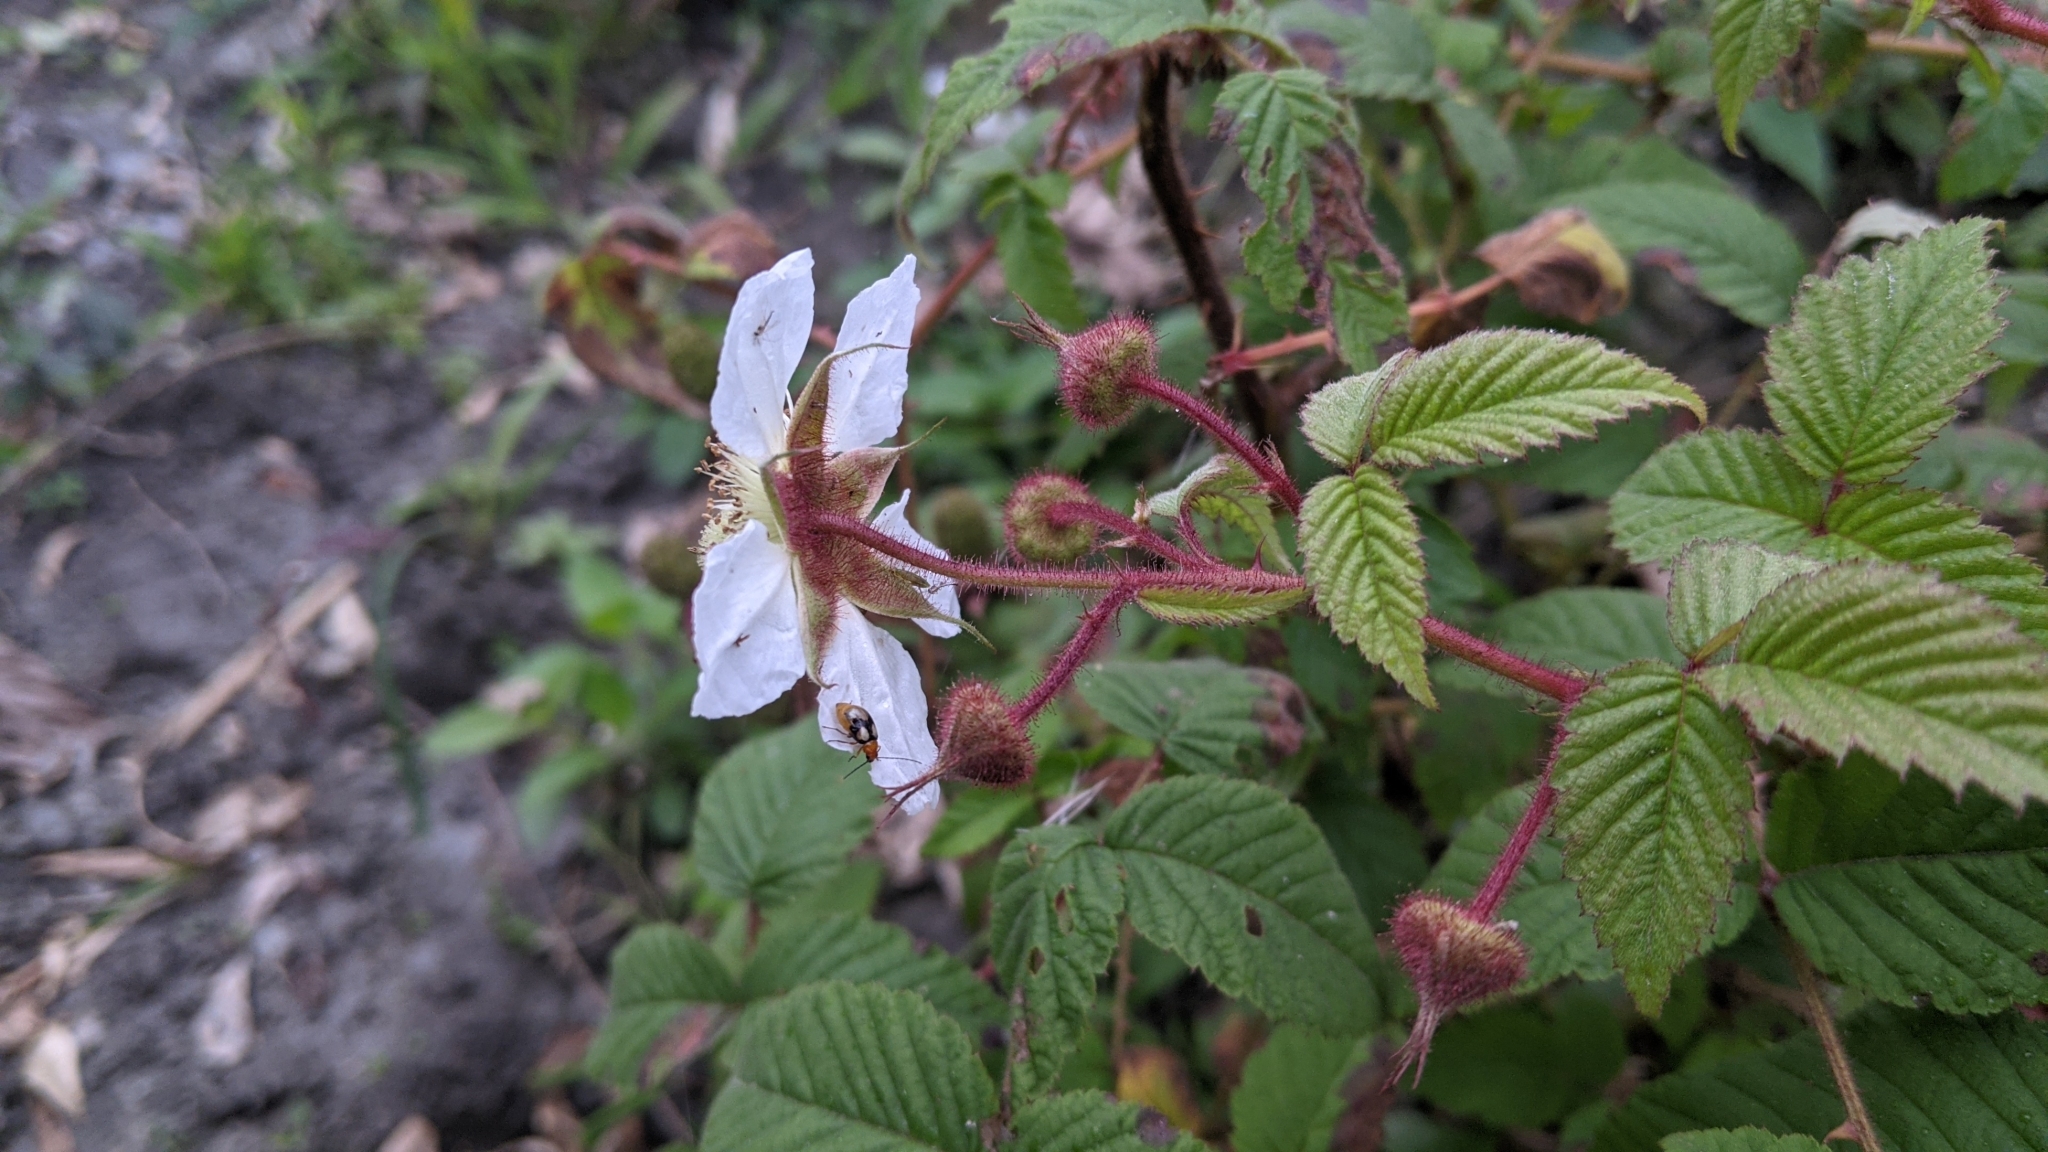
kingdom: Plantae
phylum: Tracheophyta
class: Magnoliopsida
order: Rosales
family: Rosaceae
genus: Rubus
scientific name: Rubus croceacanthus
